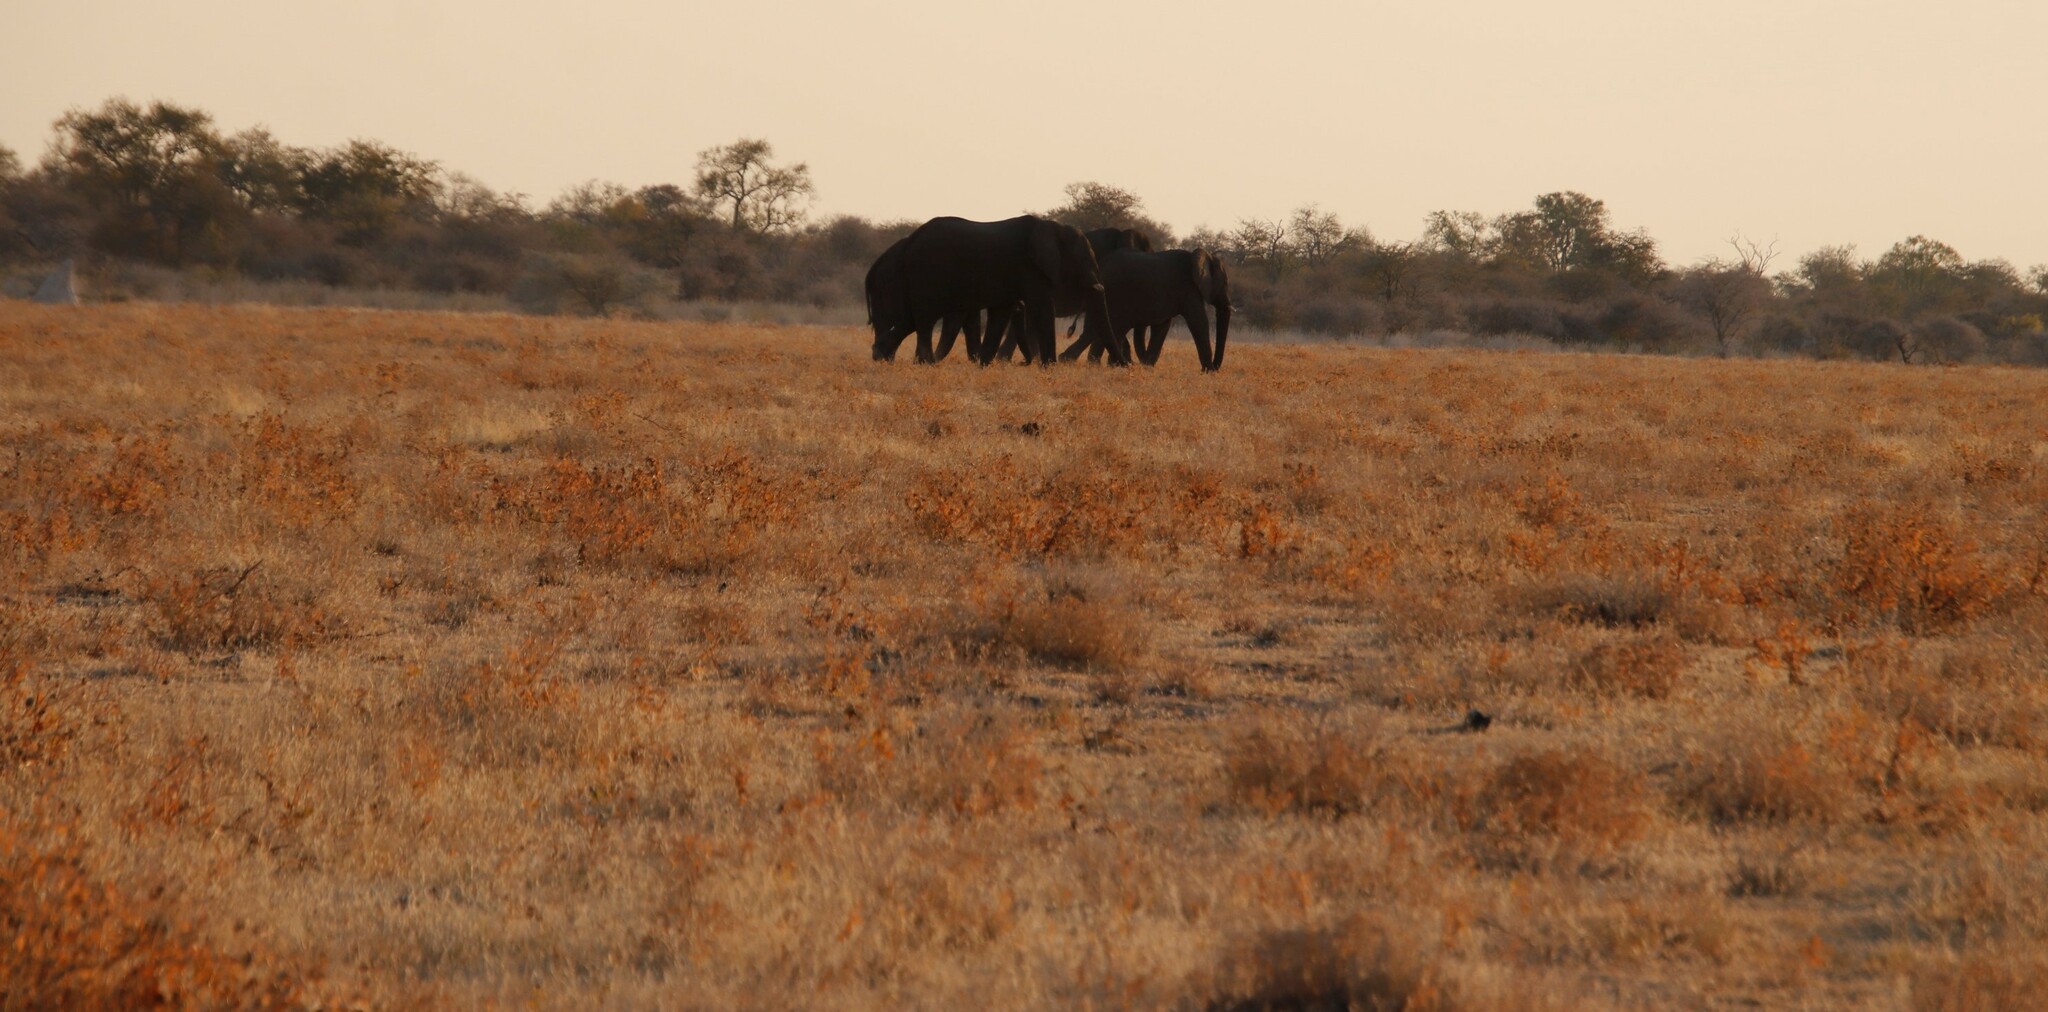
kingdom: Animalia
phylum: Chordata
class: Mammalia
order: Proboscidea
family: Elephantidae
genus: Loxodonta
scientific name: Loxodonta africana
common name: African elephant
